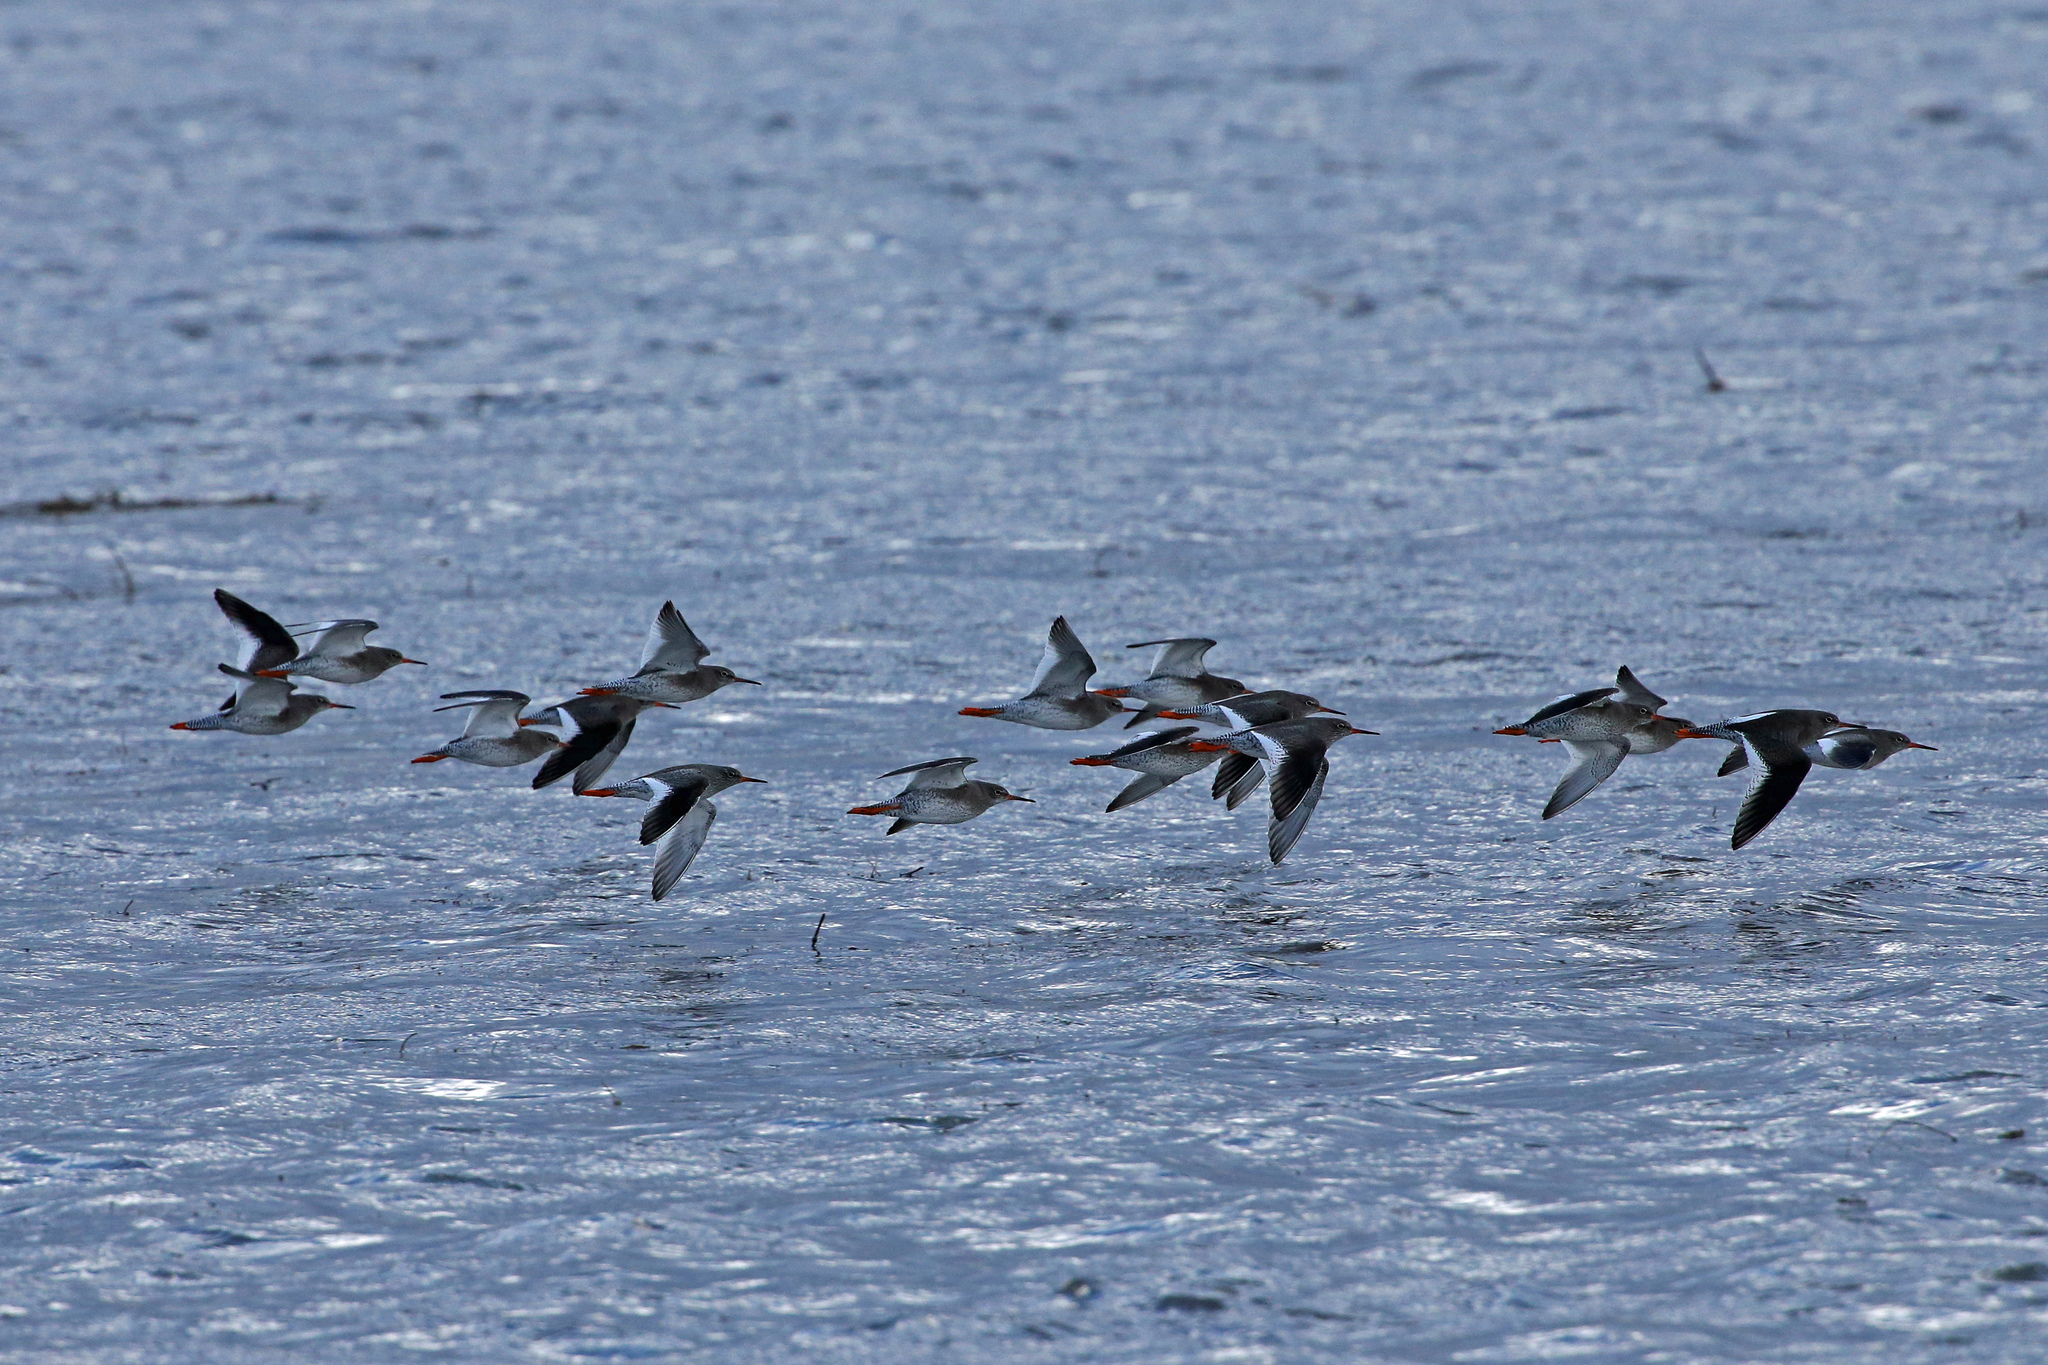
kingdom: Animalia
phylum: Chordata
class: Aves
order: Charadriiformes
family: Scolopacidae
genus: Tringa
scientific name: Tringa totanus
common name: Common redshank
